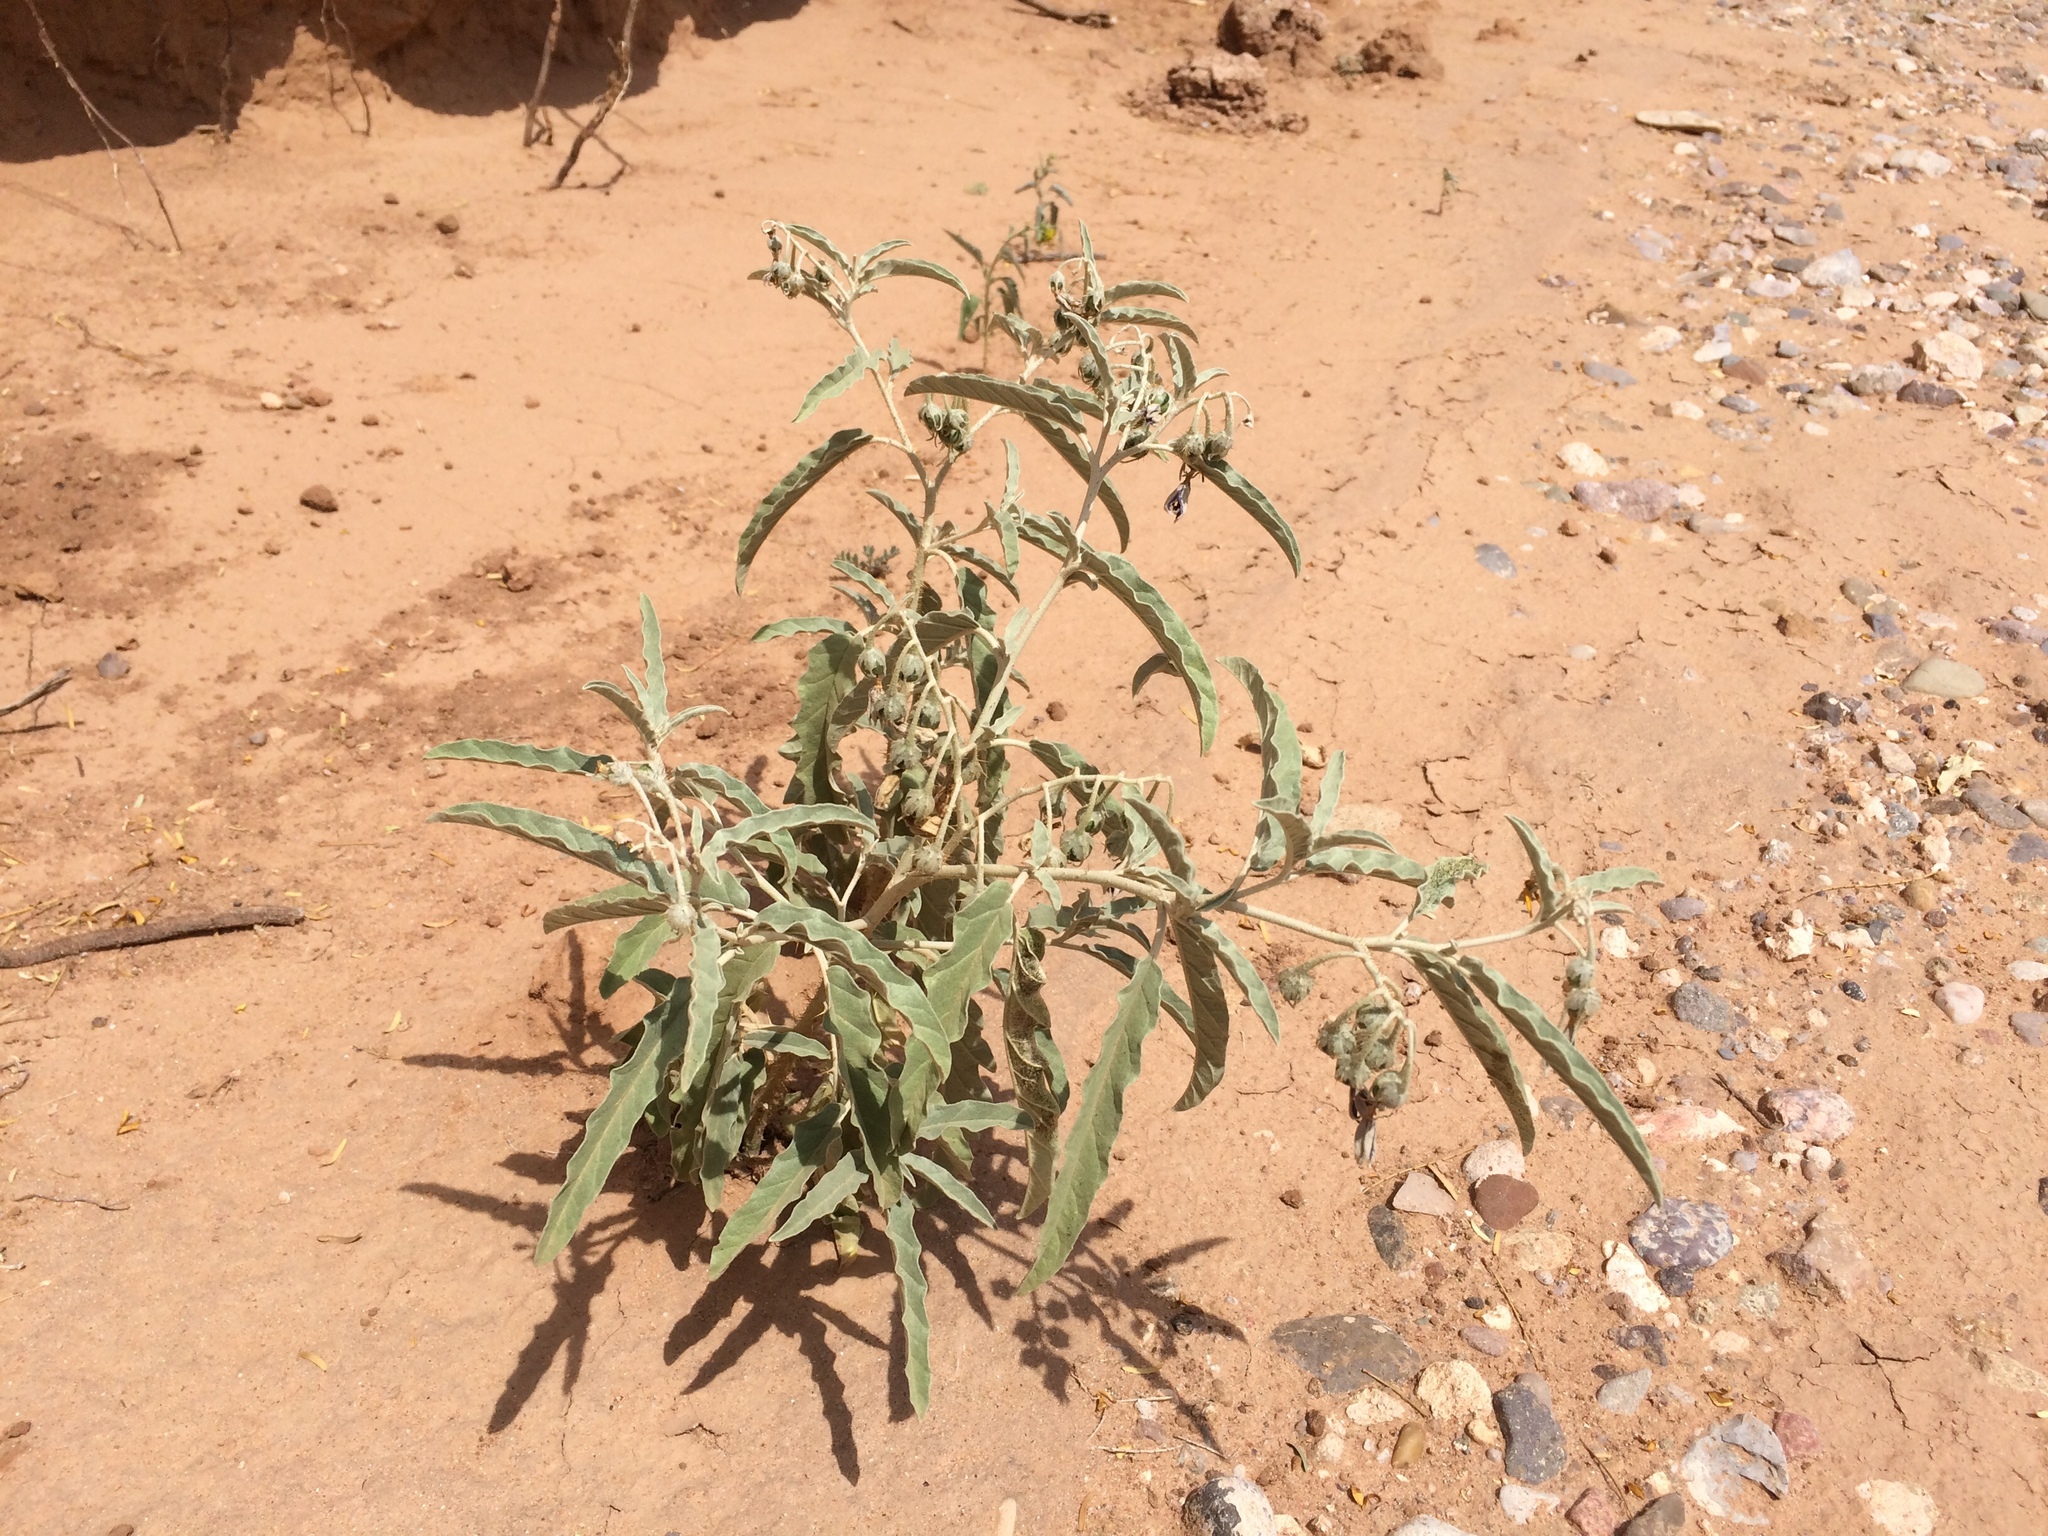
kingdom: Plantae
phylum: Tracheophyta
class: Magnoliopsida
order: Solanales
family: Solanaceae
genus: Solanum
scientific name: Solanum elaeagnifolium
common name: Silverleaf nightshade
